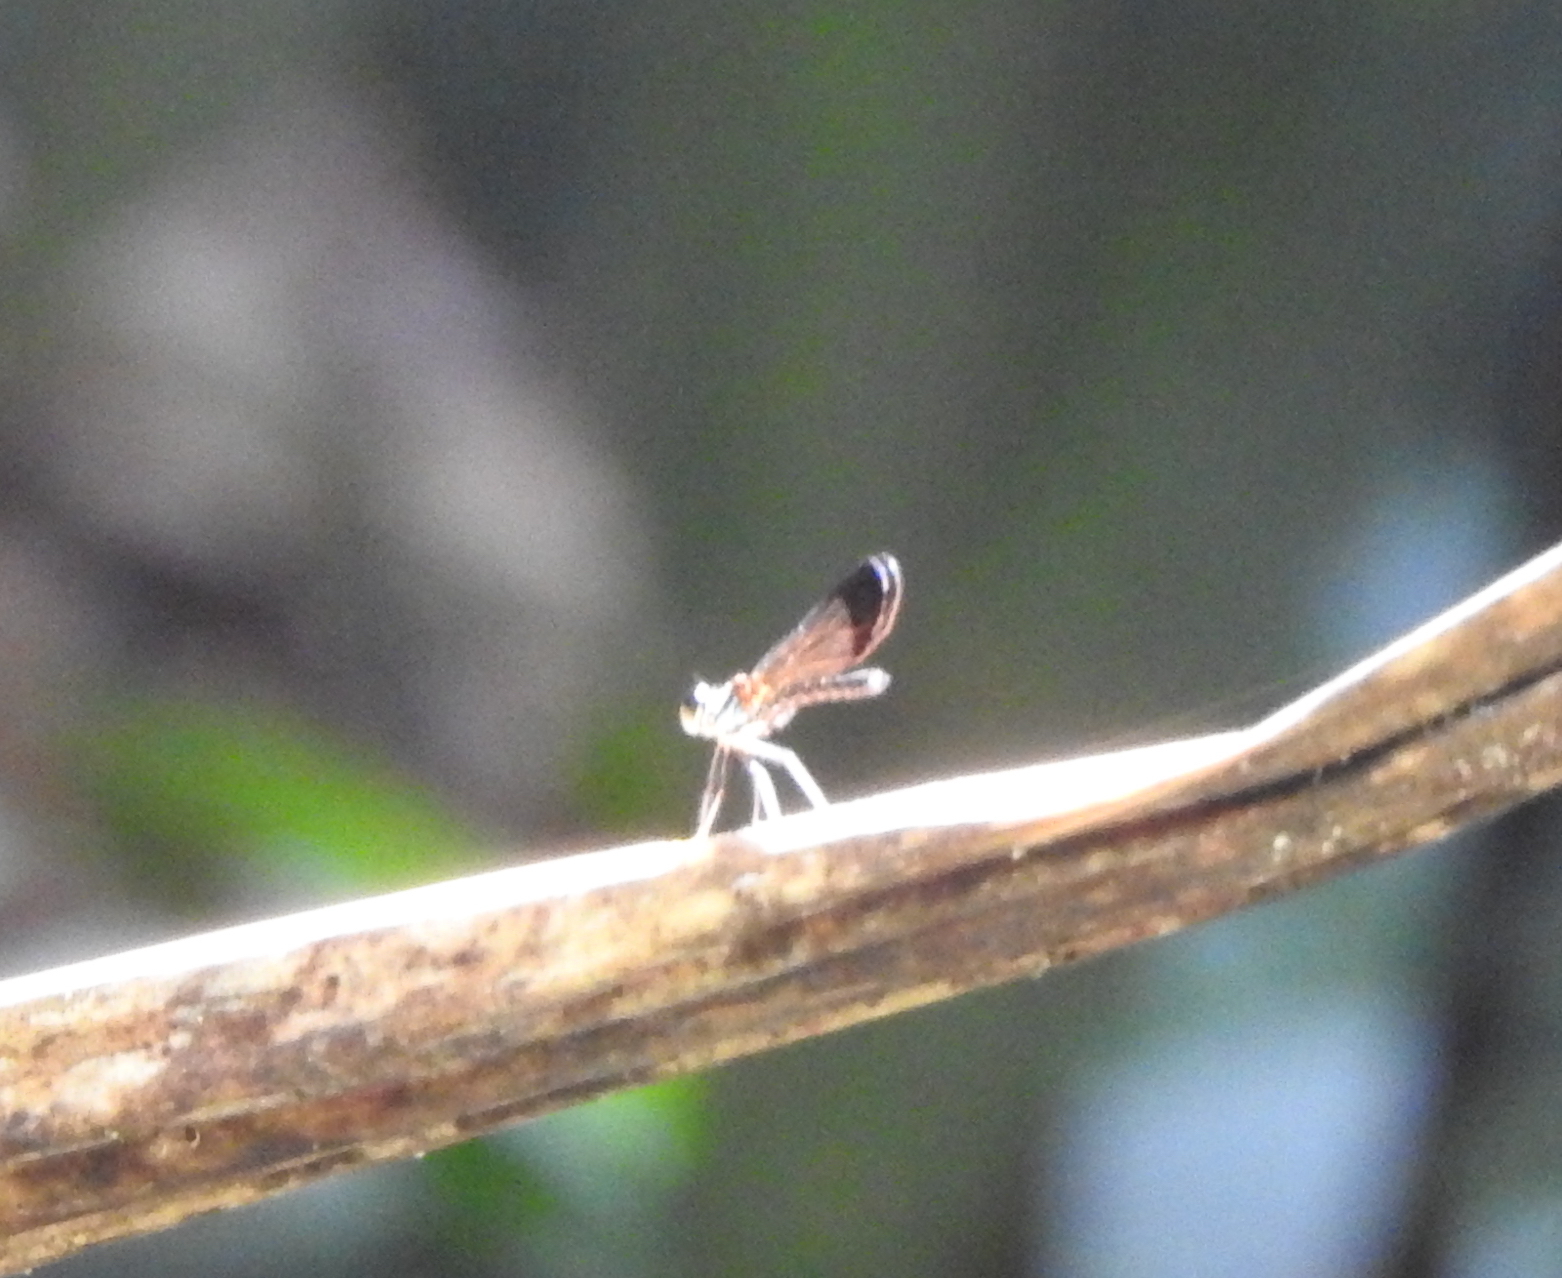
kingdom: Animalia
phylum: Arthropoda
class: Insecta
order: Odonata
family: Chlorocyphidae
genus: Heliocypha
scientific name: Heliocypha biforata
